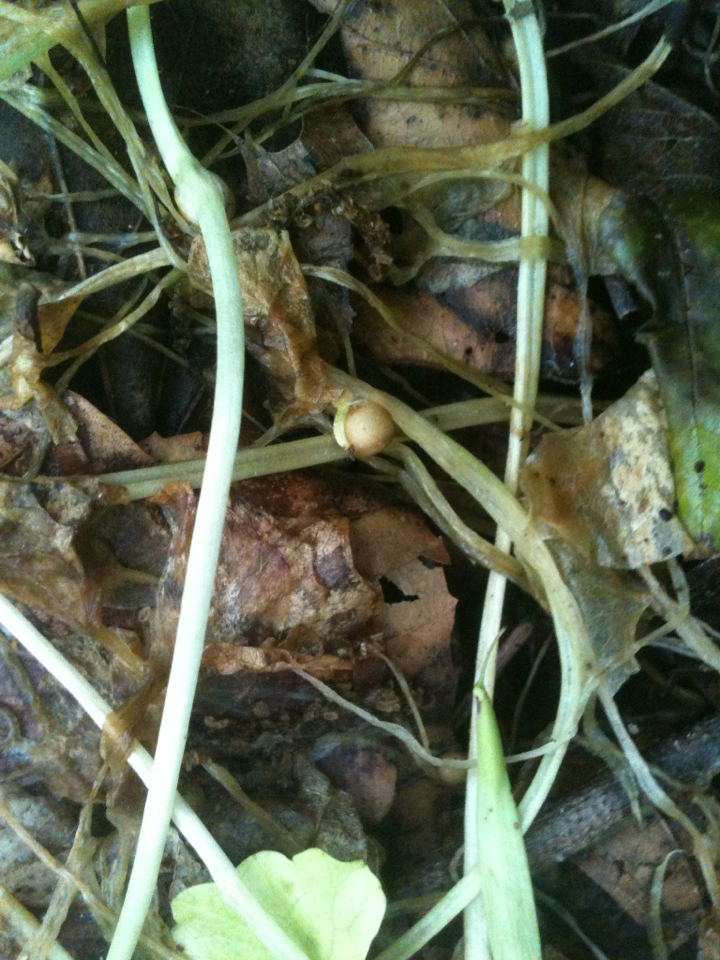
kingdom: Plantae
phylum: Tracheophyta
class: Magnoliopsida
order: Ranunculales
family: Ranunculaceae
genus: Ficaria
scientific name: Ficaria verna
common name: Lesser celandine
